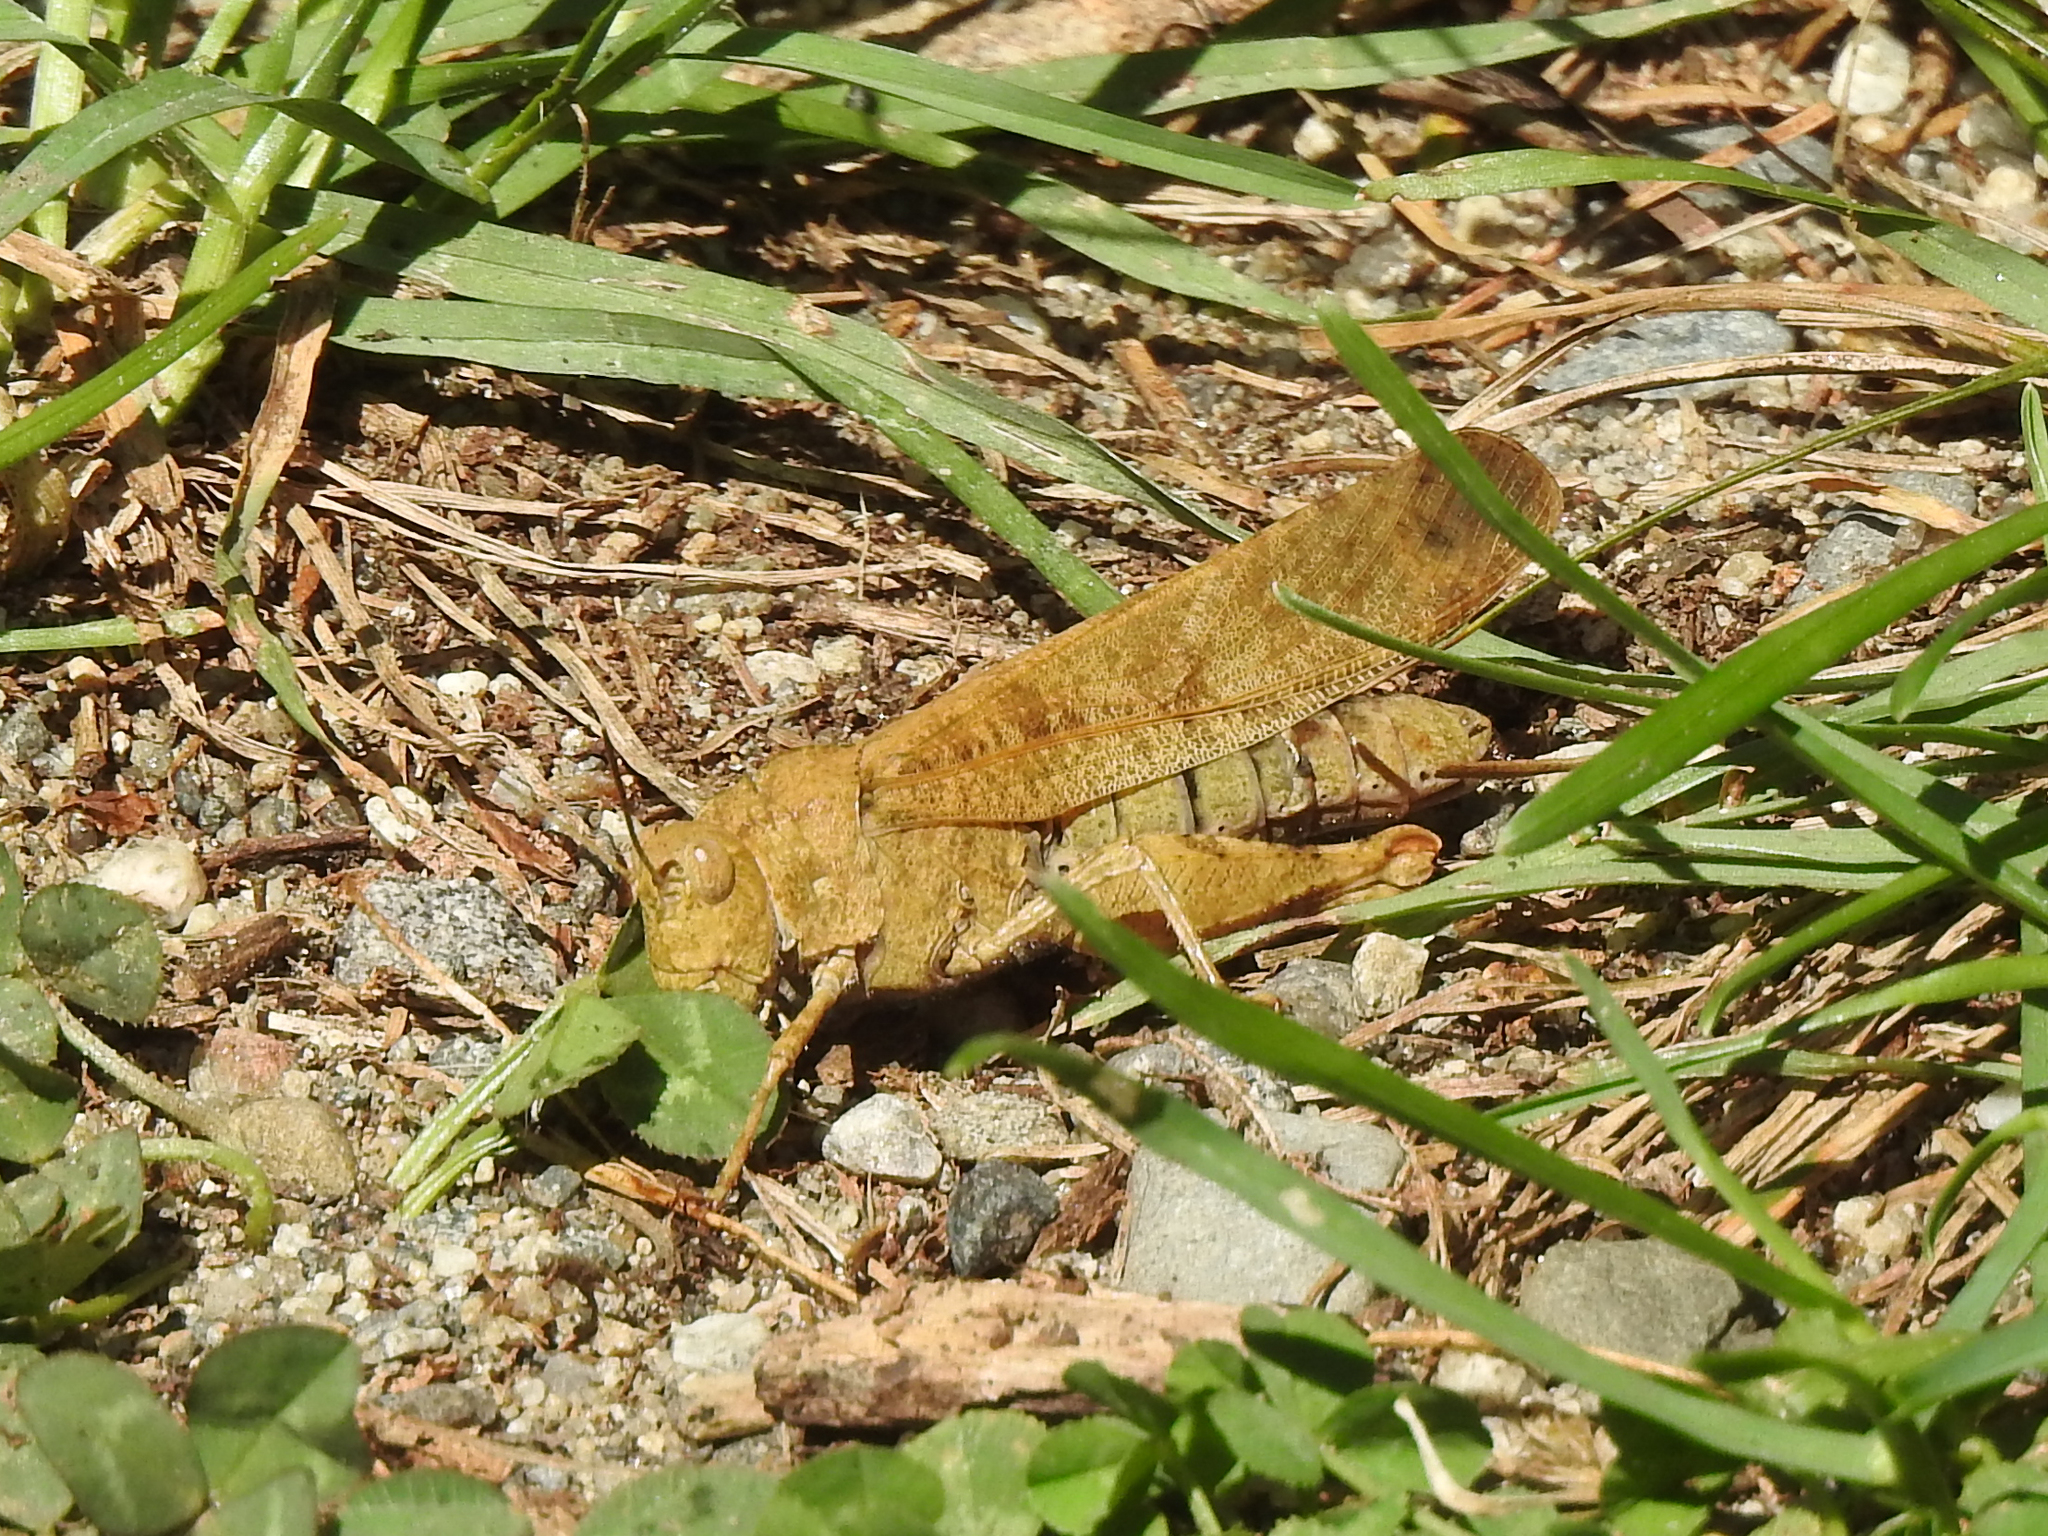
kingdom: Animalia
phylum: Arthropoda
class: Insecta
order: Orthoptera
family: Acrididae
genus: Dissosteira
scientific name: Dissosteira carolina
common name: Carolina grasshopper
